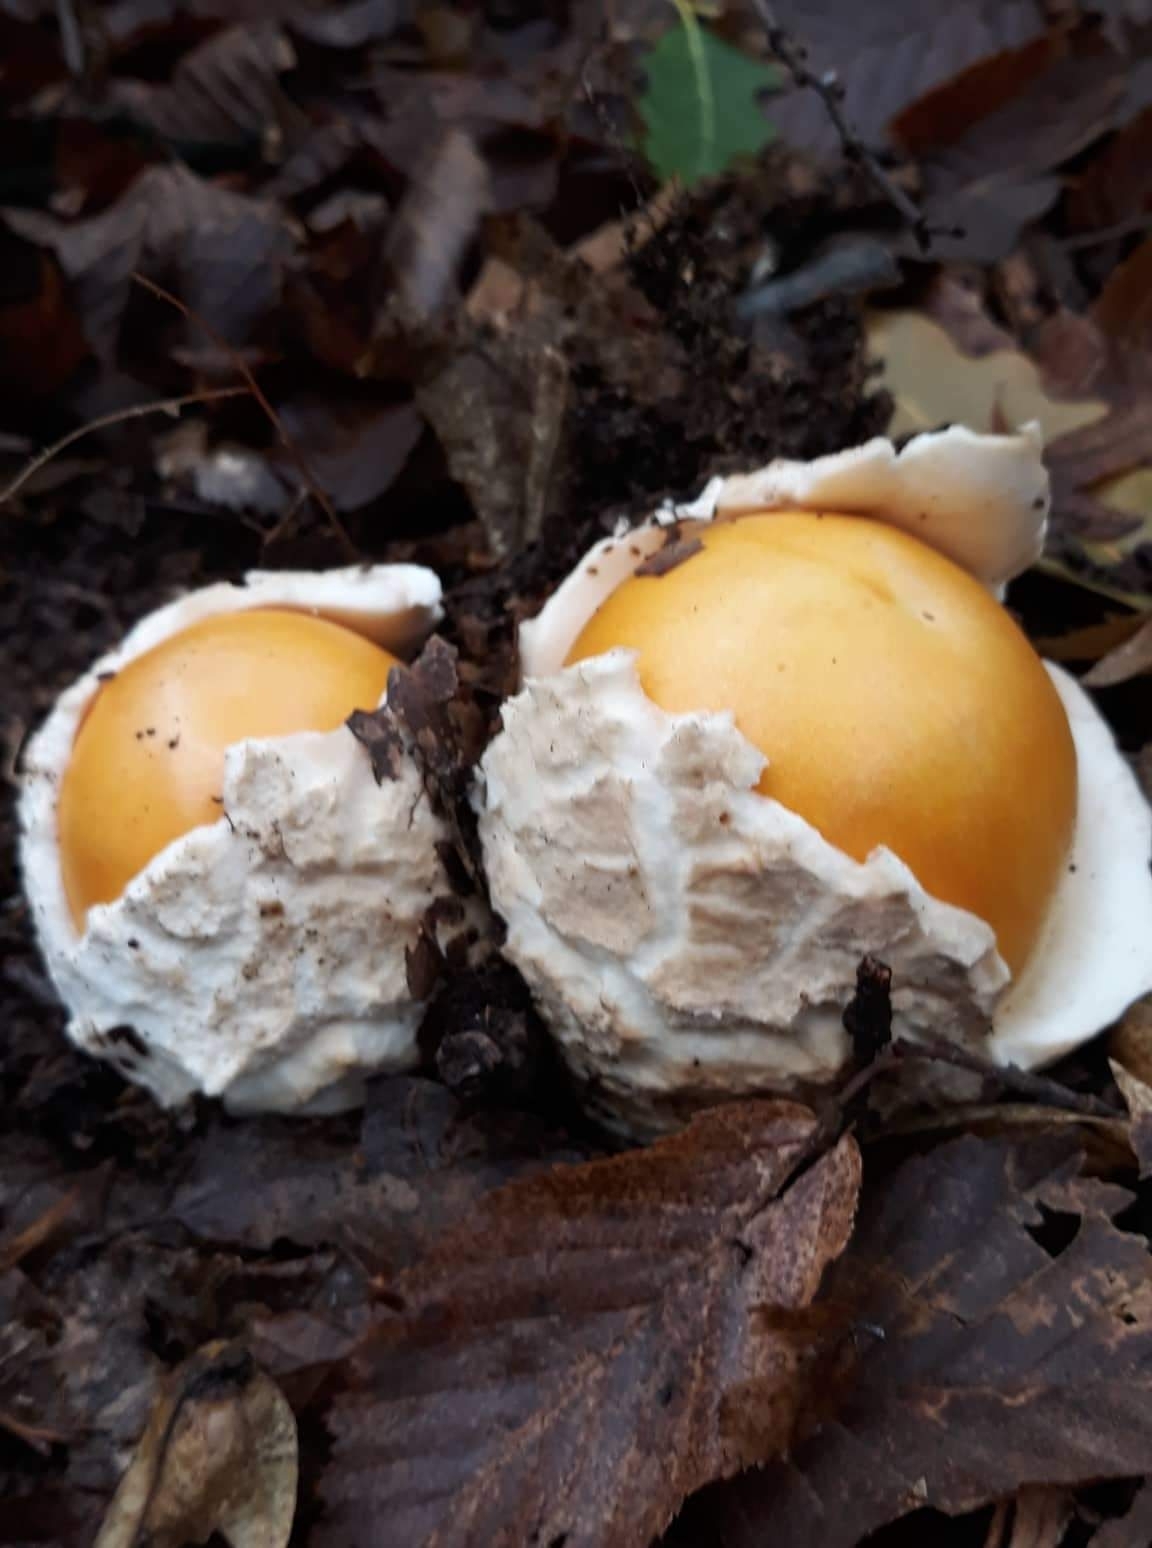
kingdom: Fungi
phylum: Basidiomycota
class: Agaricomycetes
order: Agaricales
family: Amanitaceae
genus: Amanita
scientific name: Amanita caesarea
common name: Caesar's amanita
